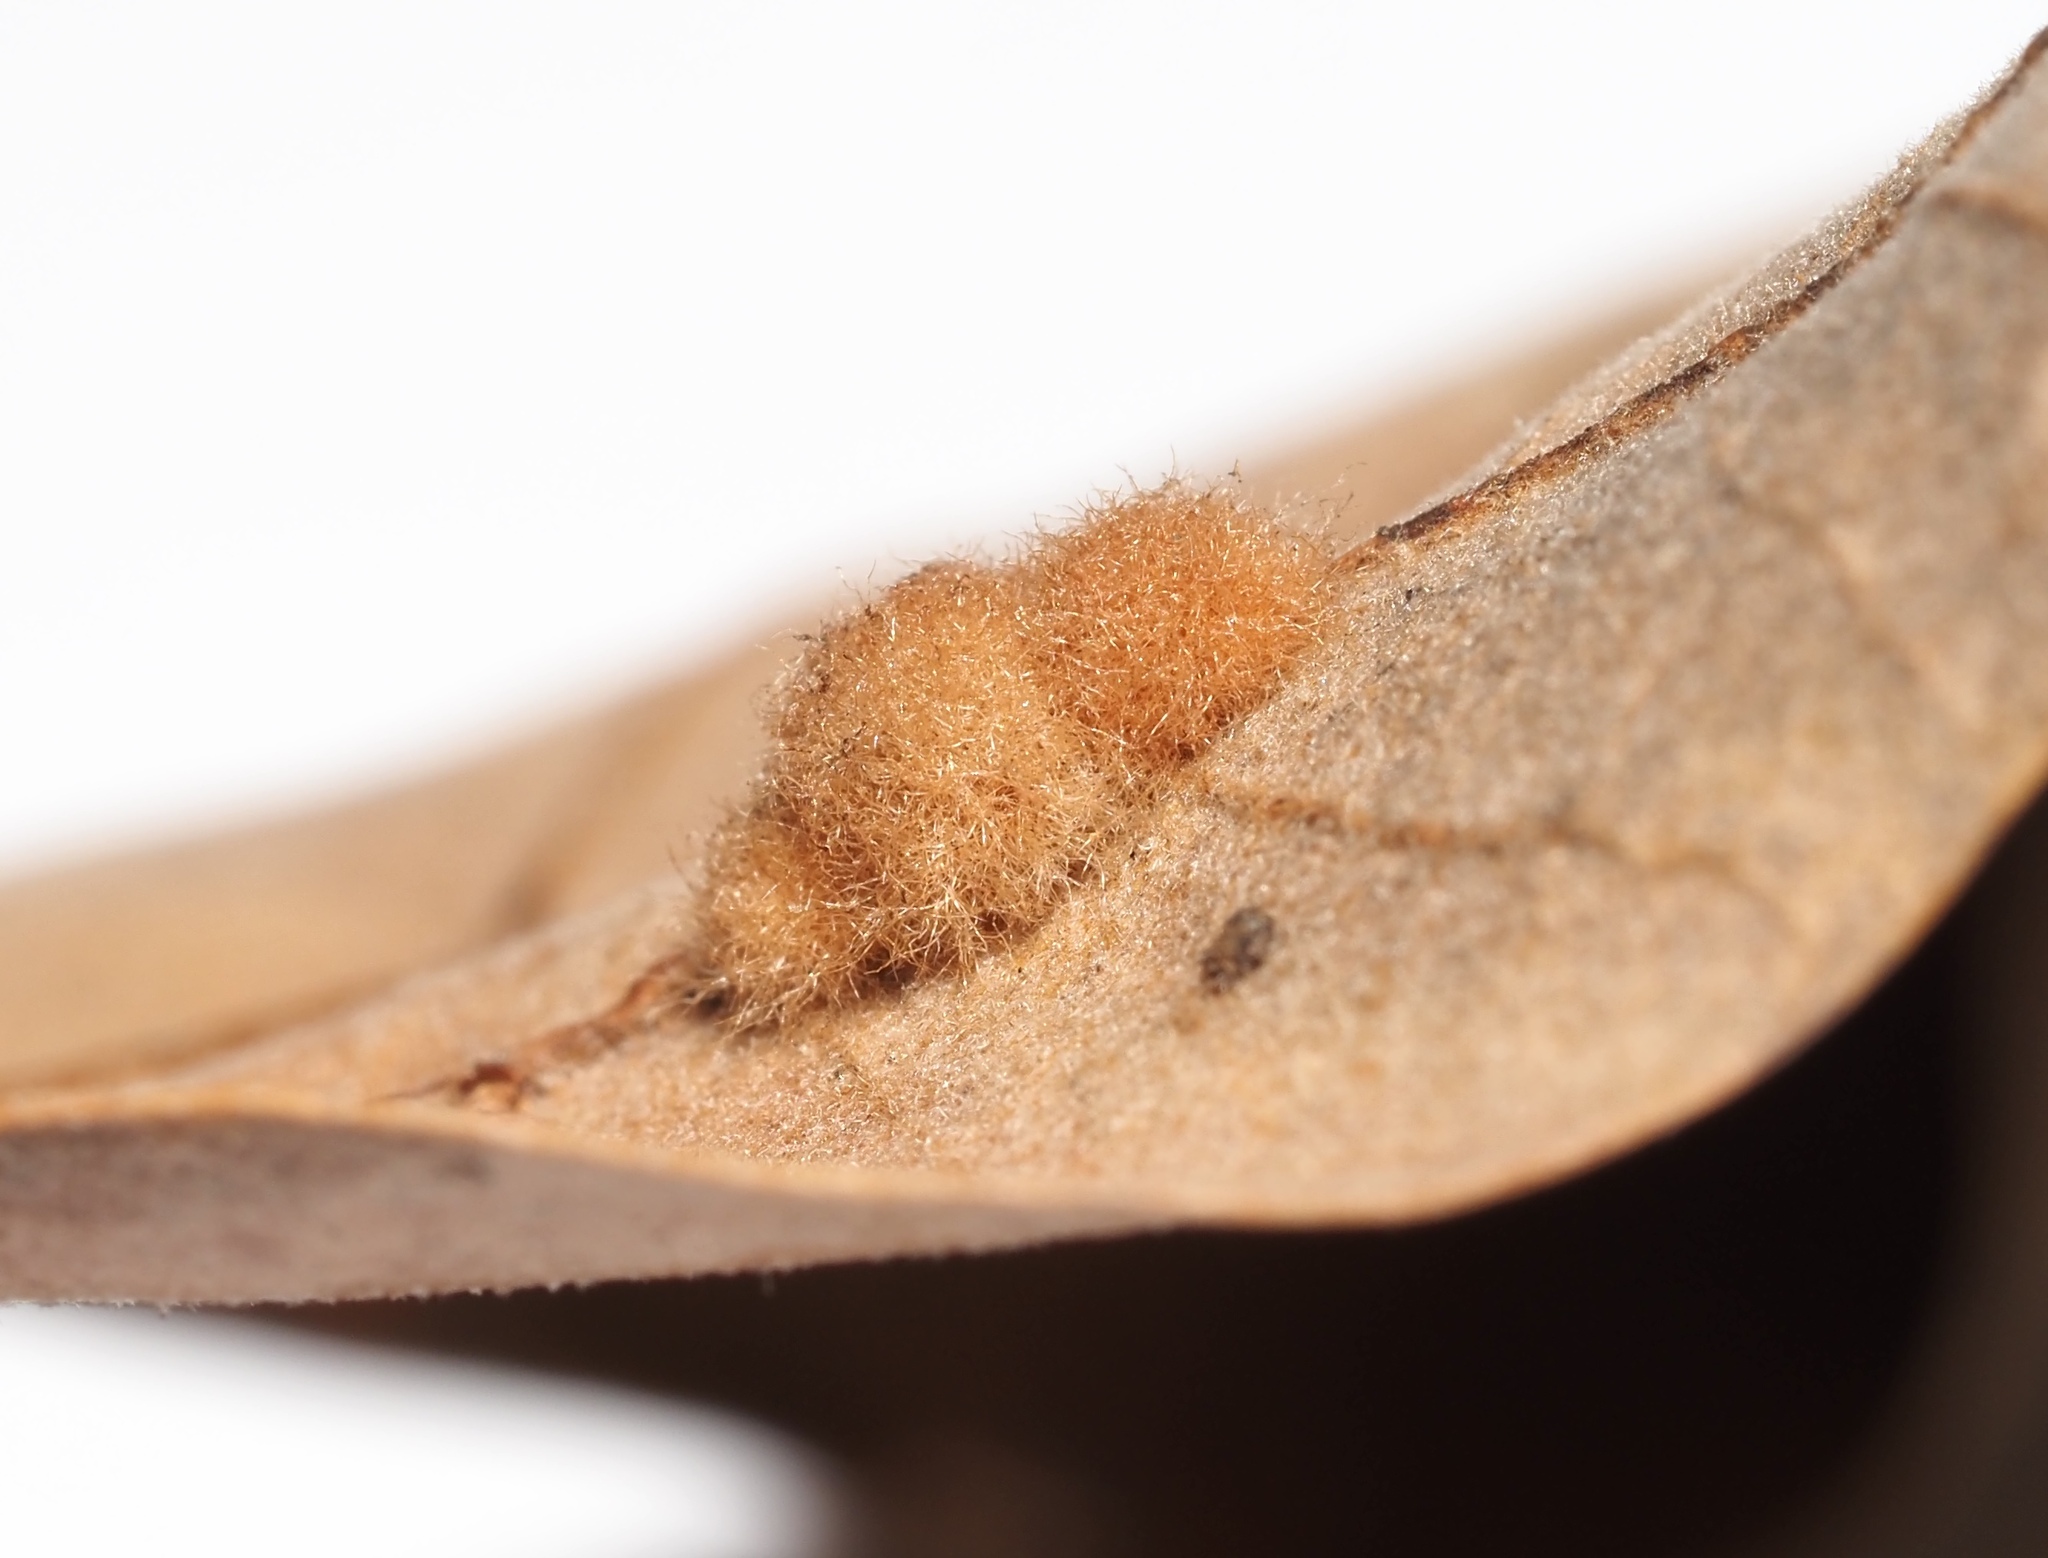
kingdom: Animalia
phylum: Arthropoda
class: Insecta
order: Hymenoptera
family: Cynipidae
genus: Callirhytis
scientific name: Callirhytis
